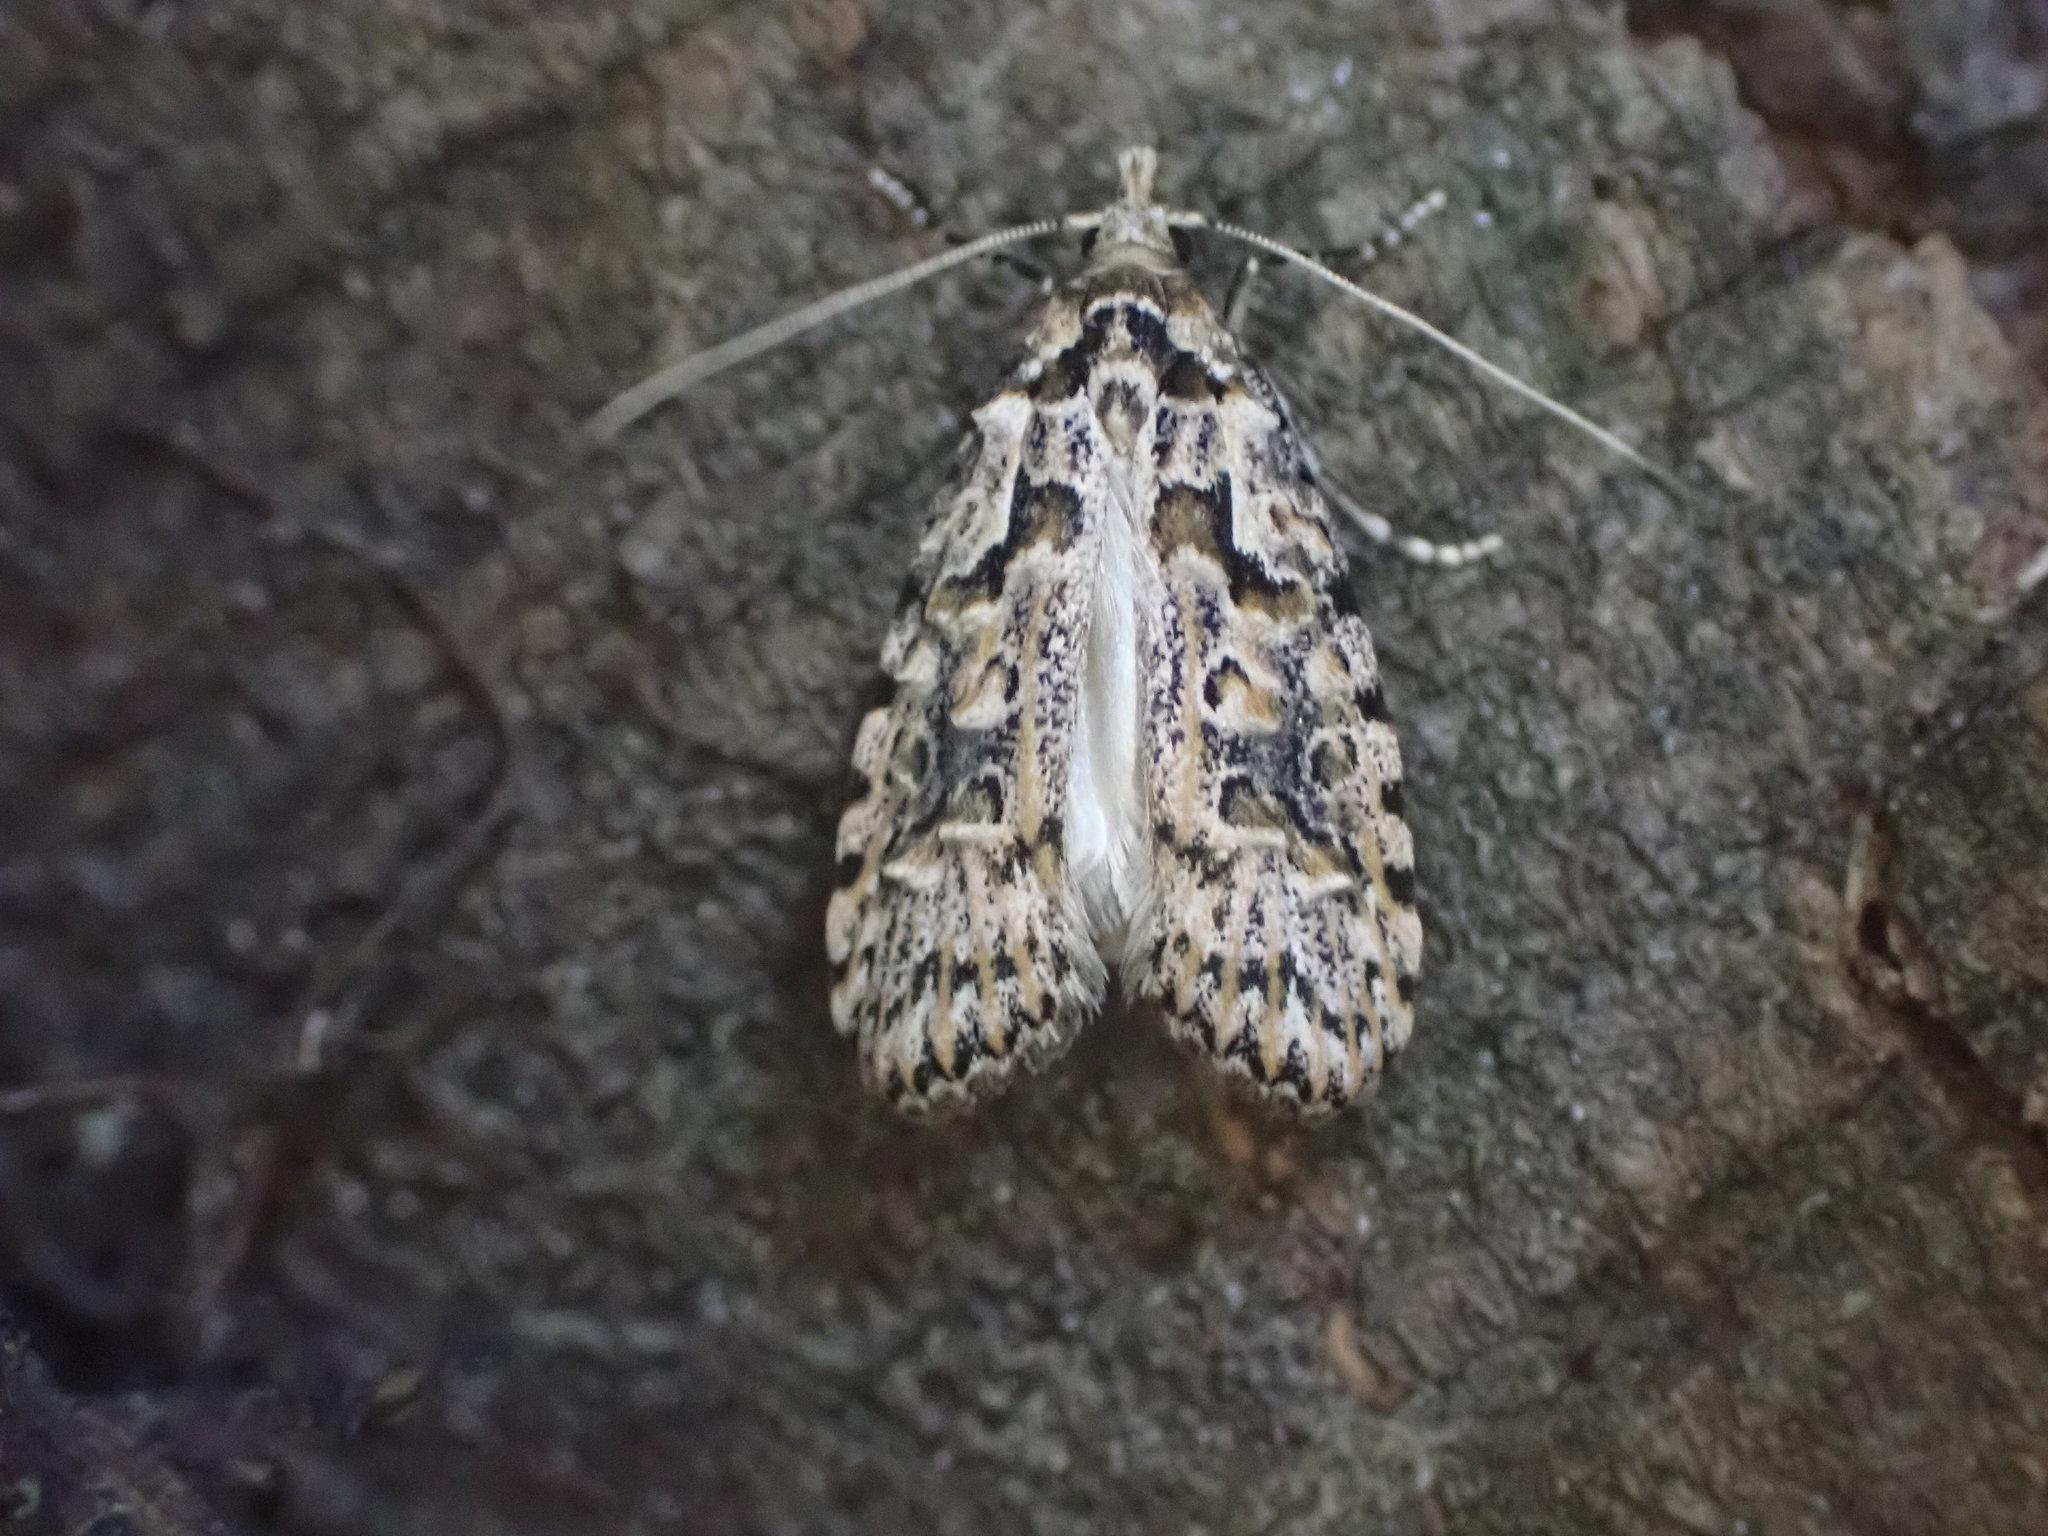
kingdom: Animalia
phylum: Arthropoda
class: Insecta
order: Lepidoptera
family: Carposinidae
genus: Carposina
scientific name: Carposina Heterocrossa eriphylla
